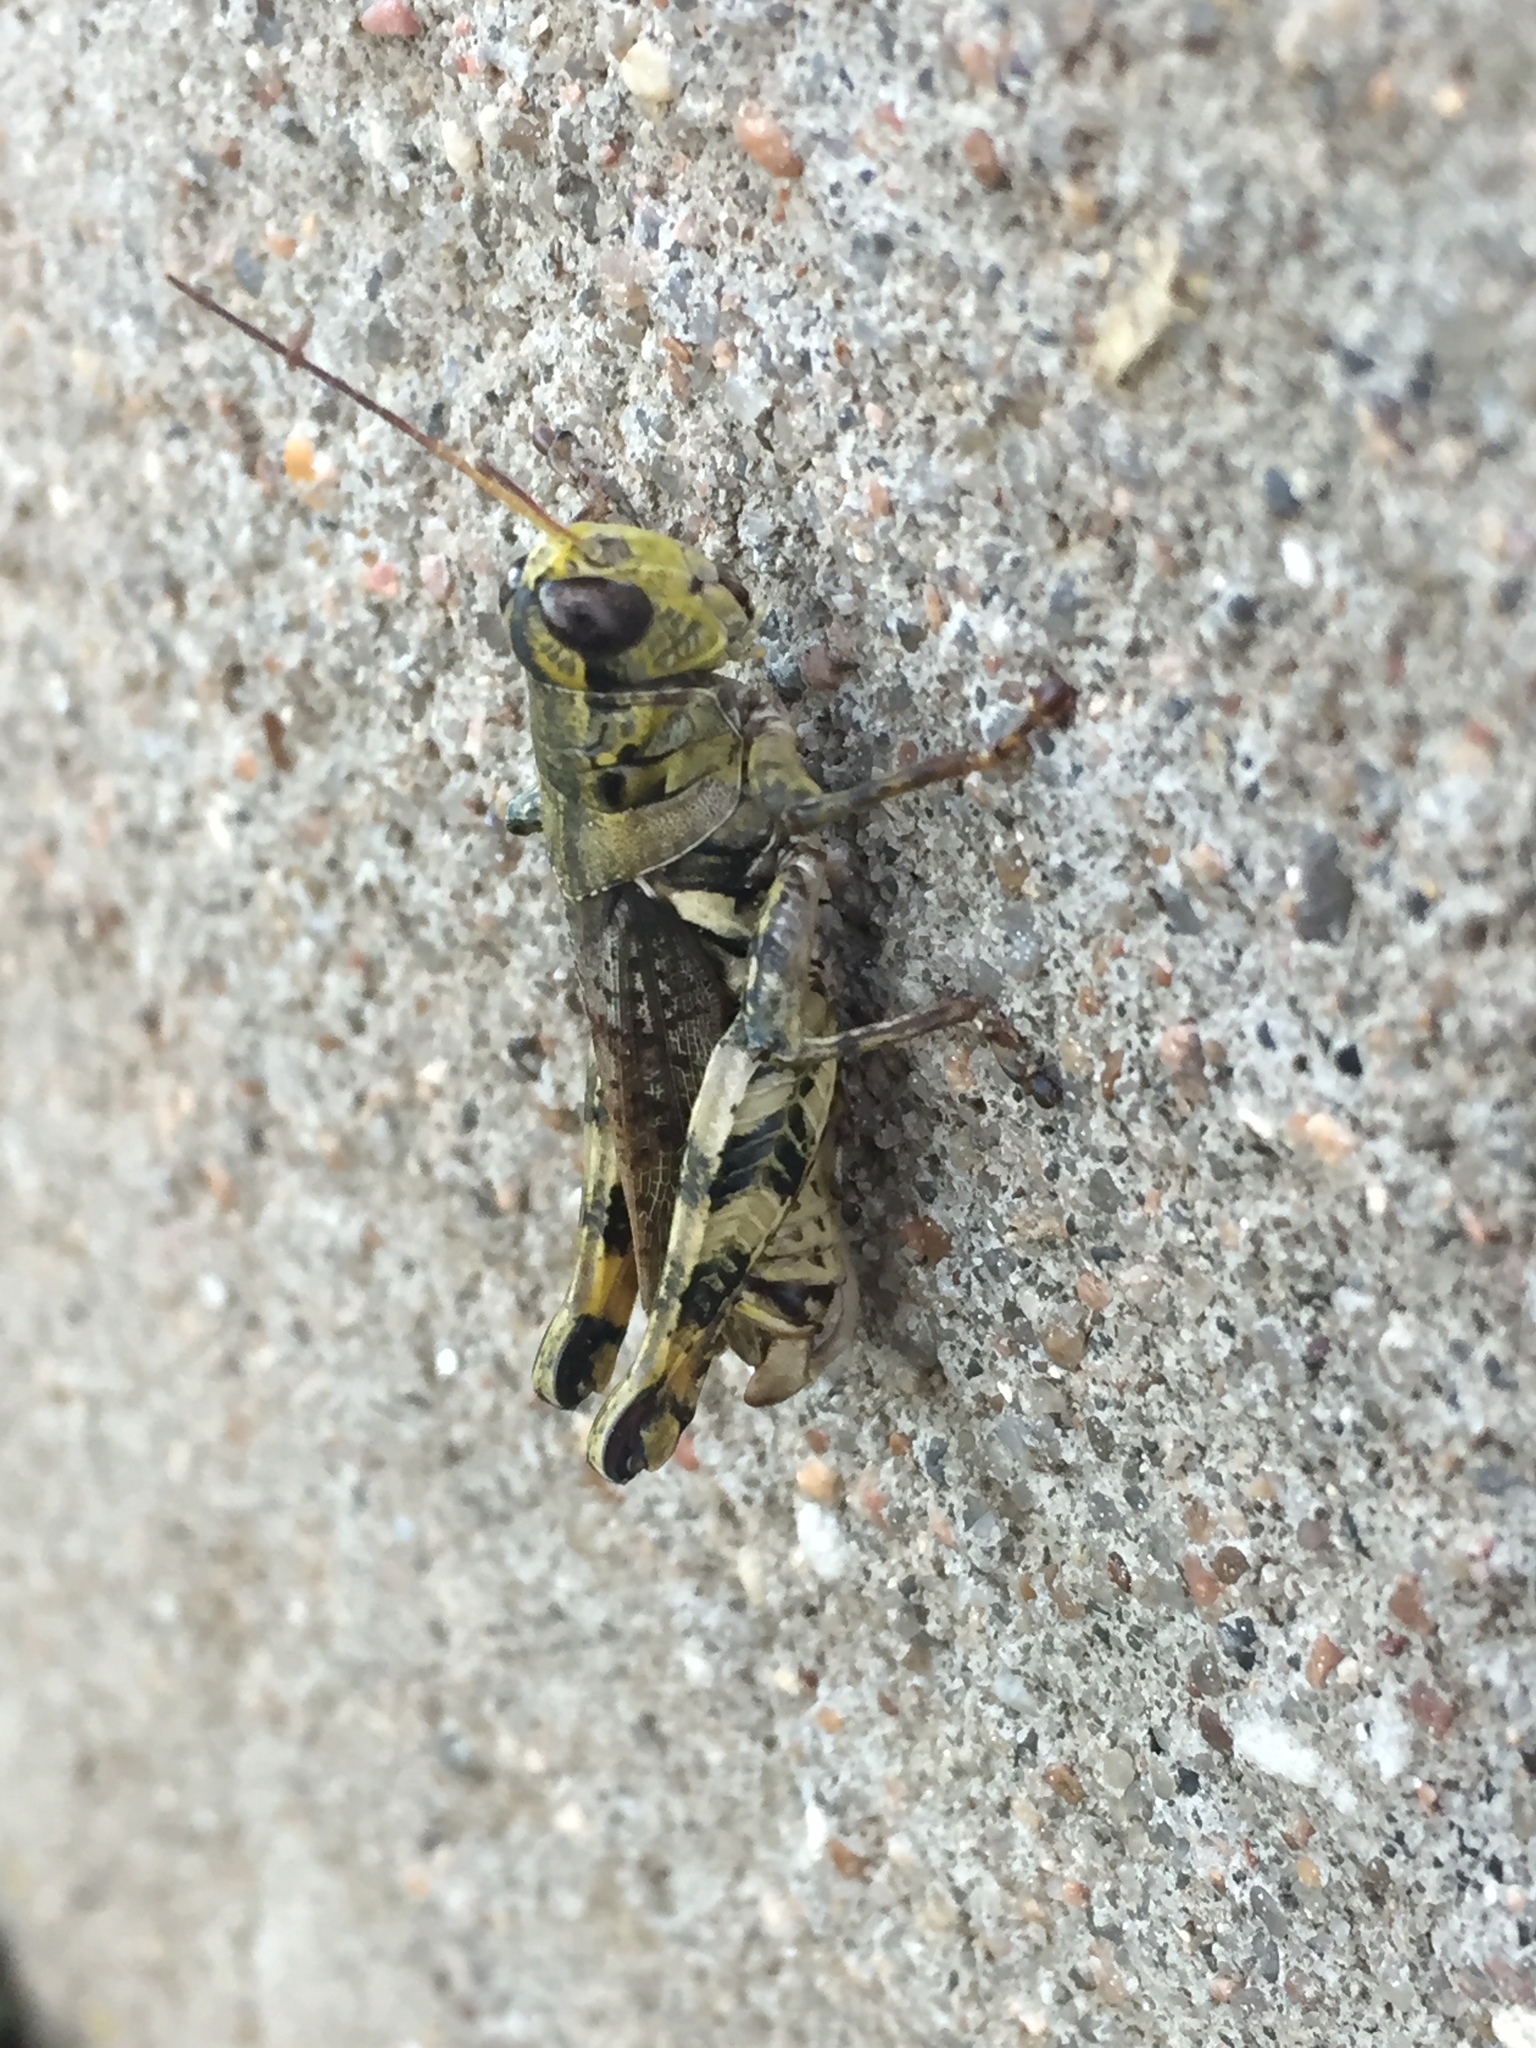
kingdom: Animalia
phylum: Arthropoda
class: Insecta
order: Orthoptera
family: Acrididae
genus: Melanoplus
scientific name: Melanoplus ponderosus
